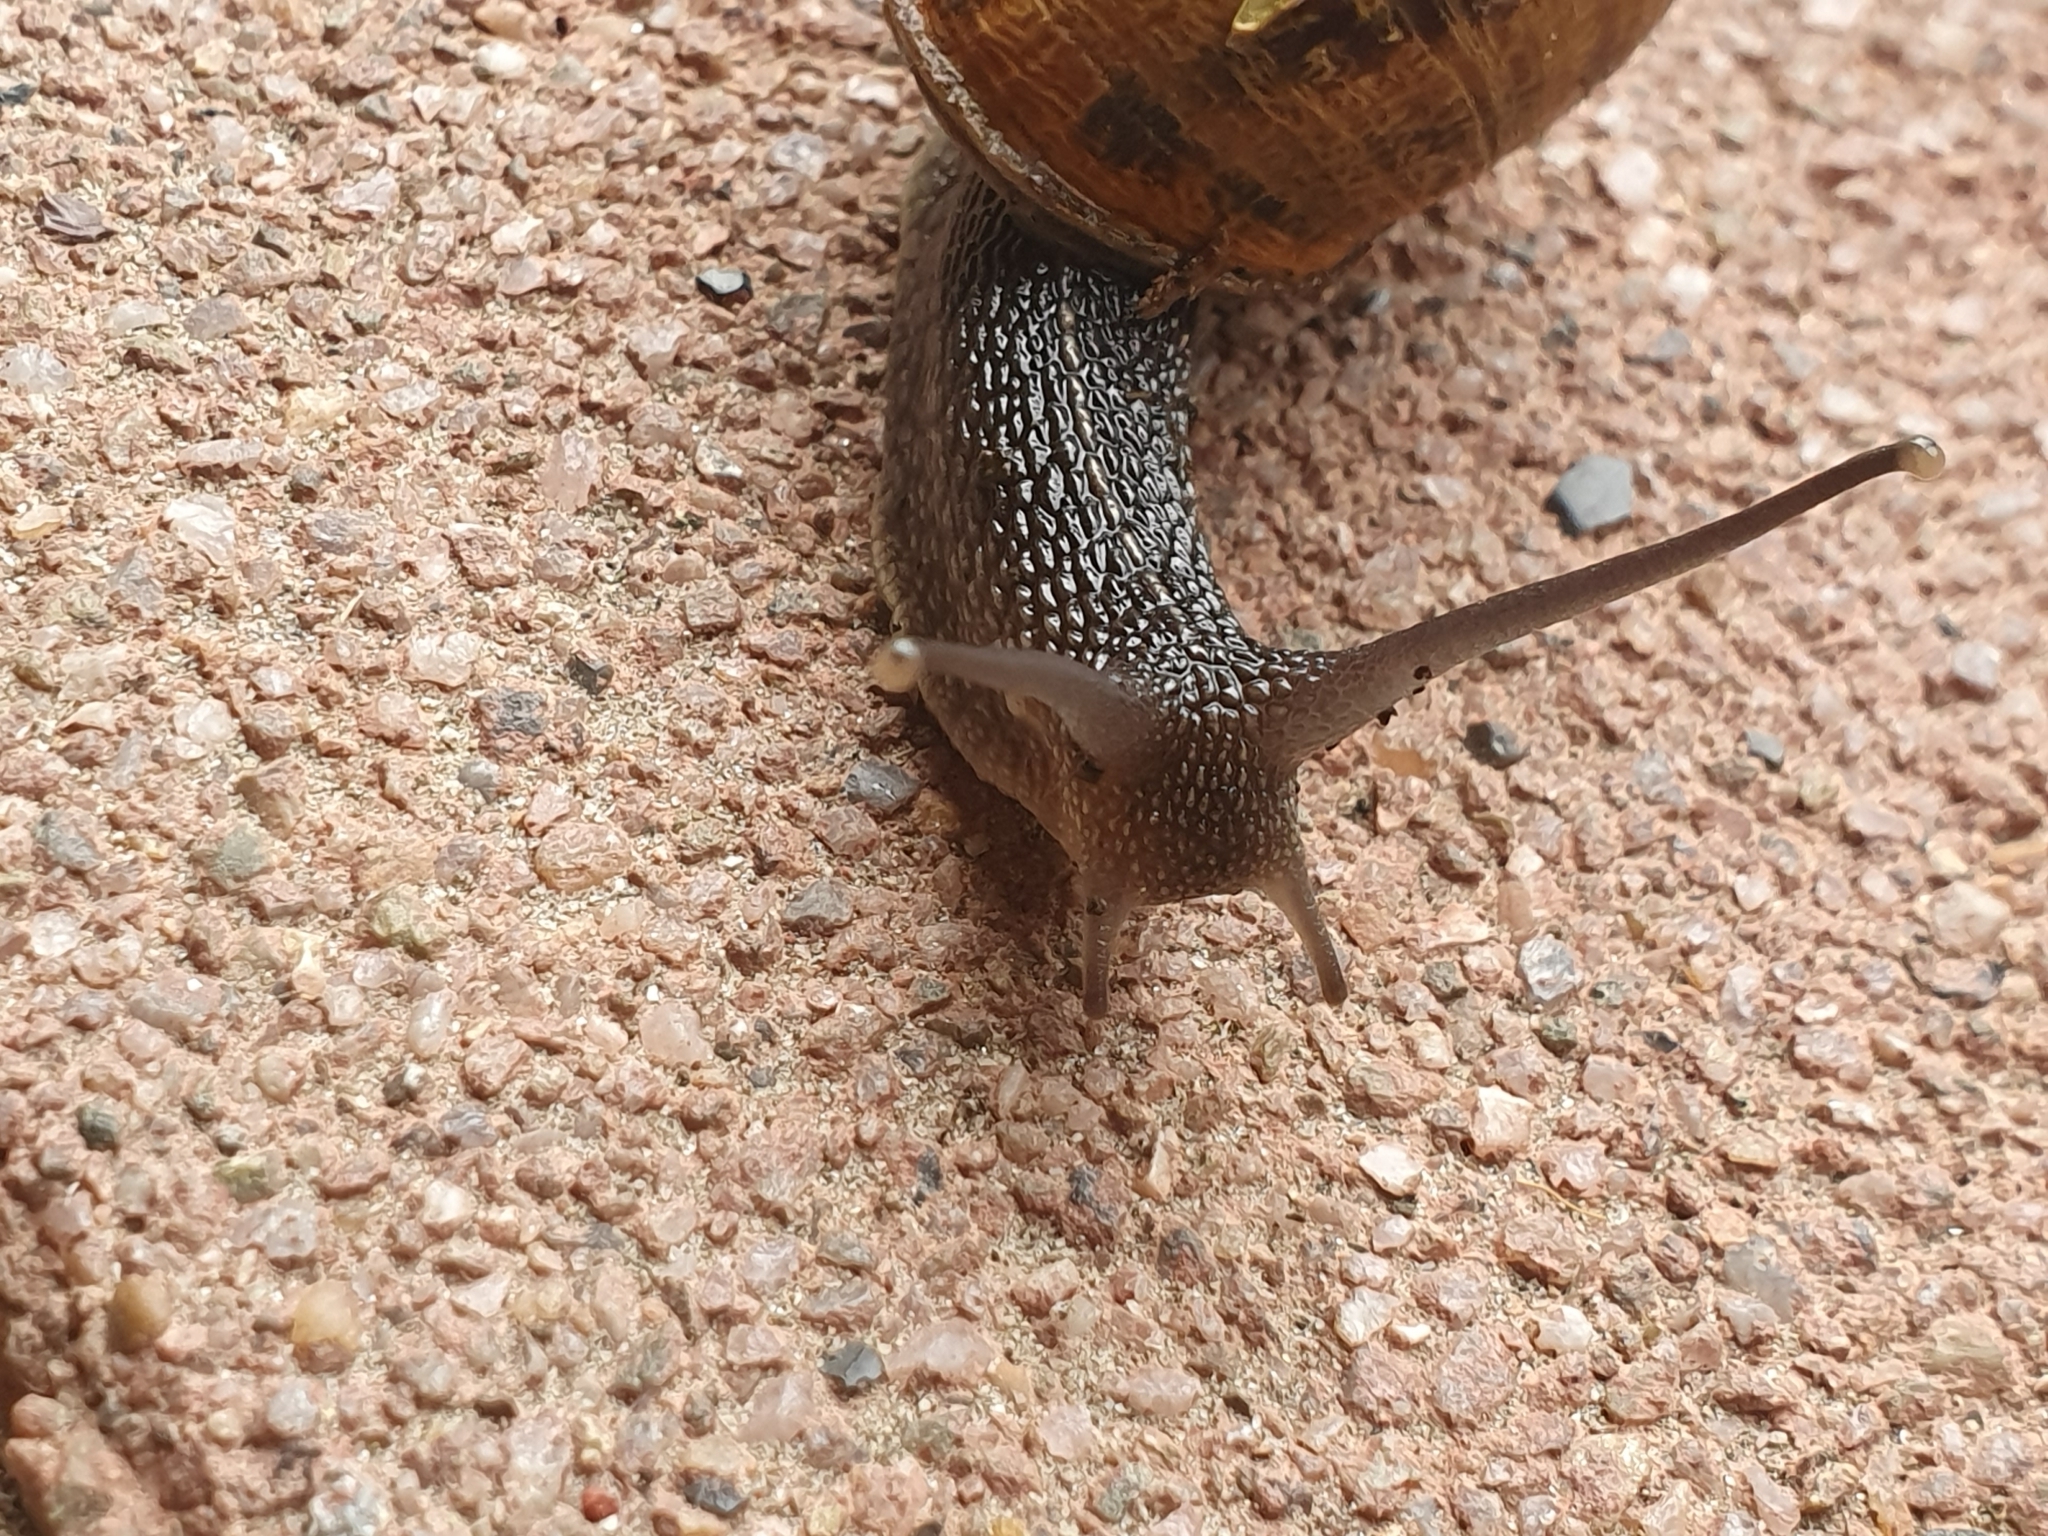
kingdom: Animalia
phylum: Mollusca
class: Gastropoda
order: Stylommatophora
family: Helicidae
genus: Cornu
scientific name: Cornu aspersum
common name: Brown garden snail
